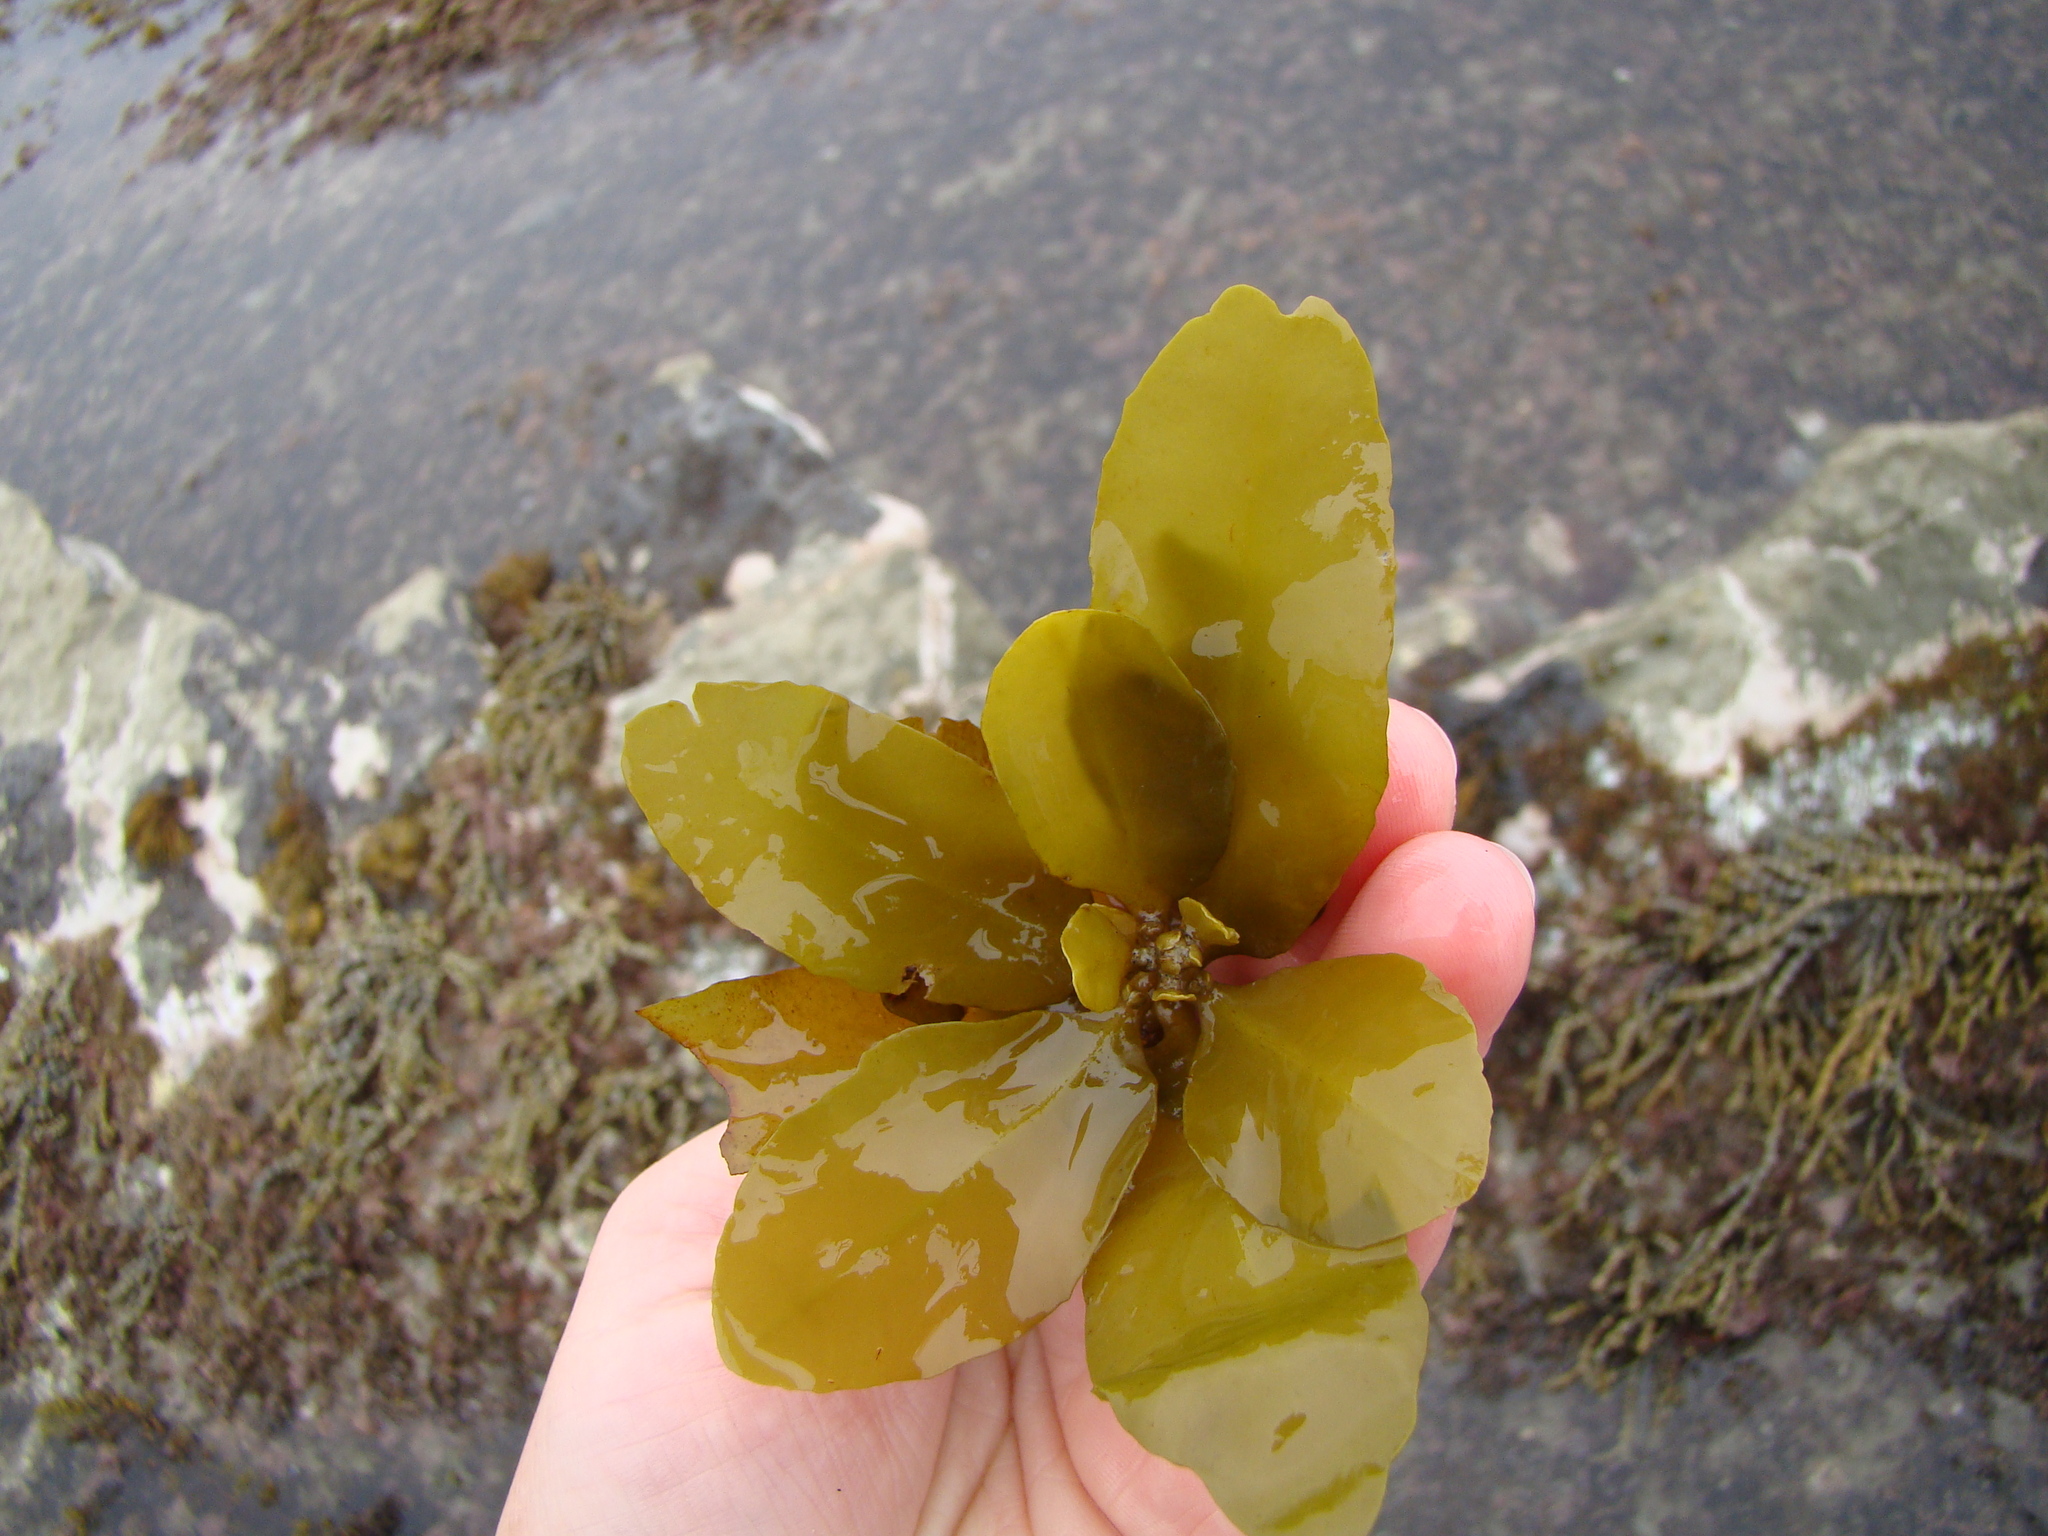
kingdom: Chromista
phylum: Ochrophyta
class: Phaeophyceae
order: Fucales
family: Sargassaceae
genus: Carpophyllum
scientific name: Carpophyllum flexuosum
